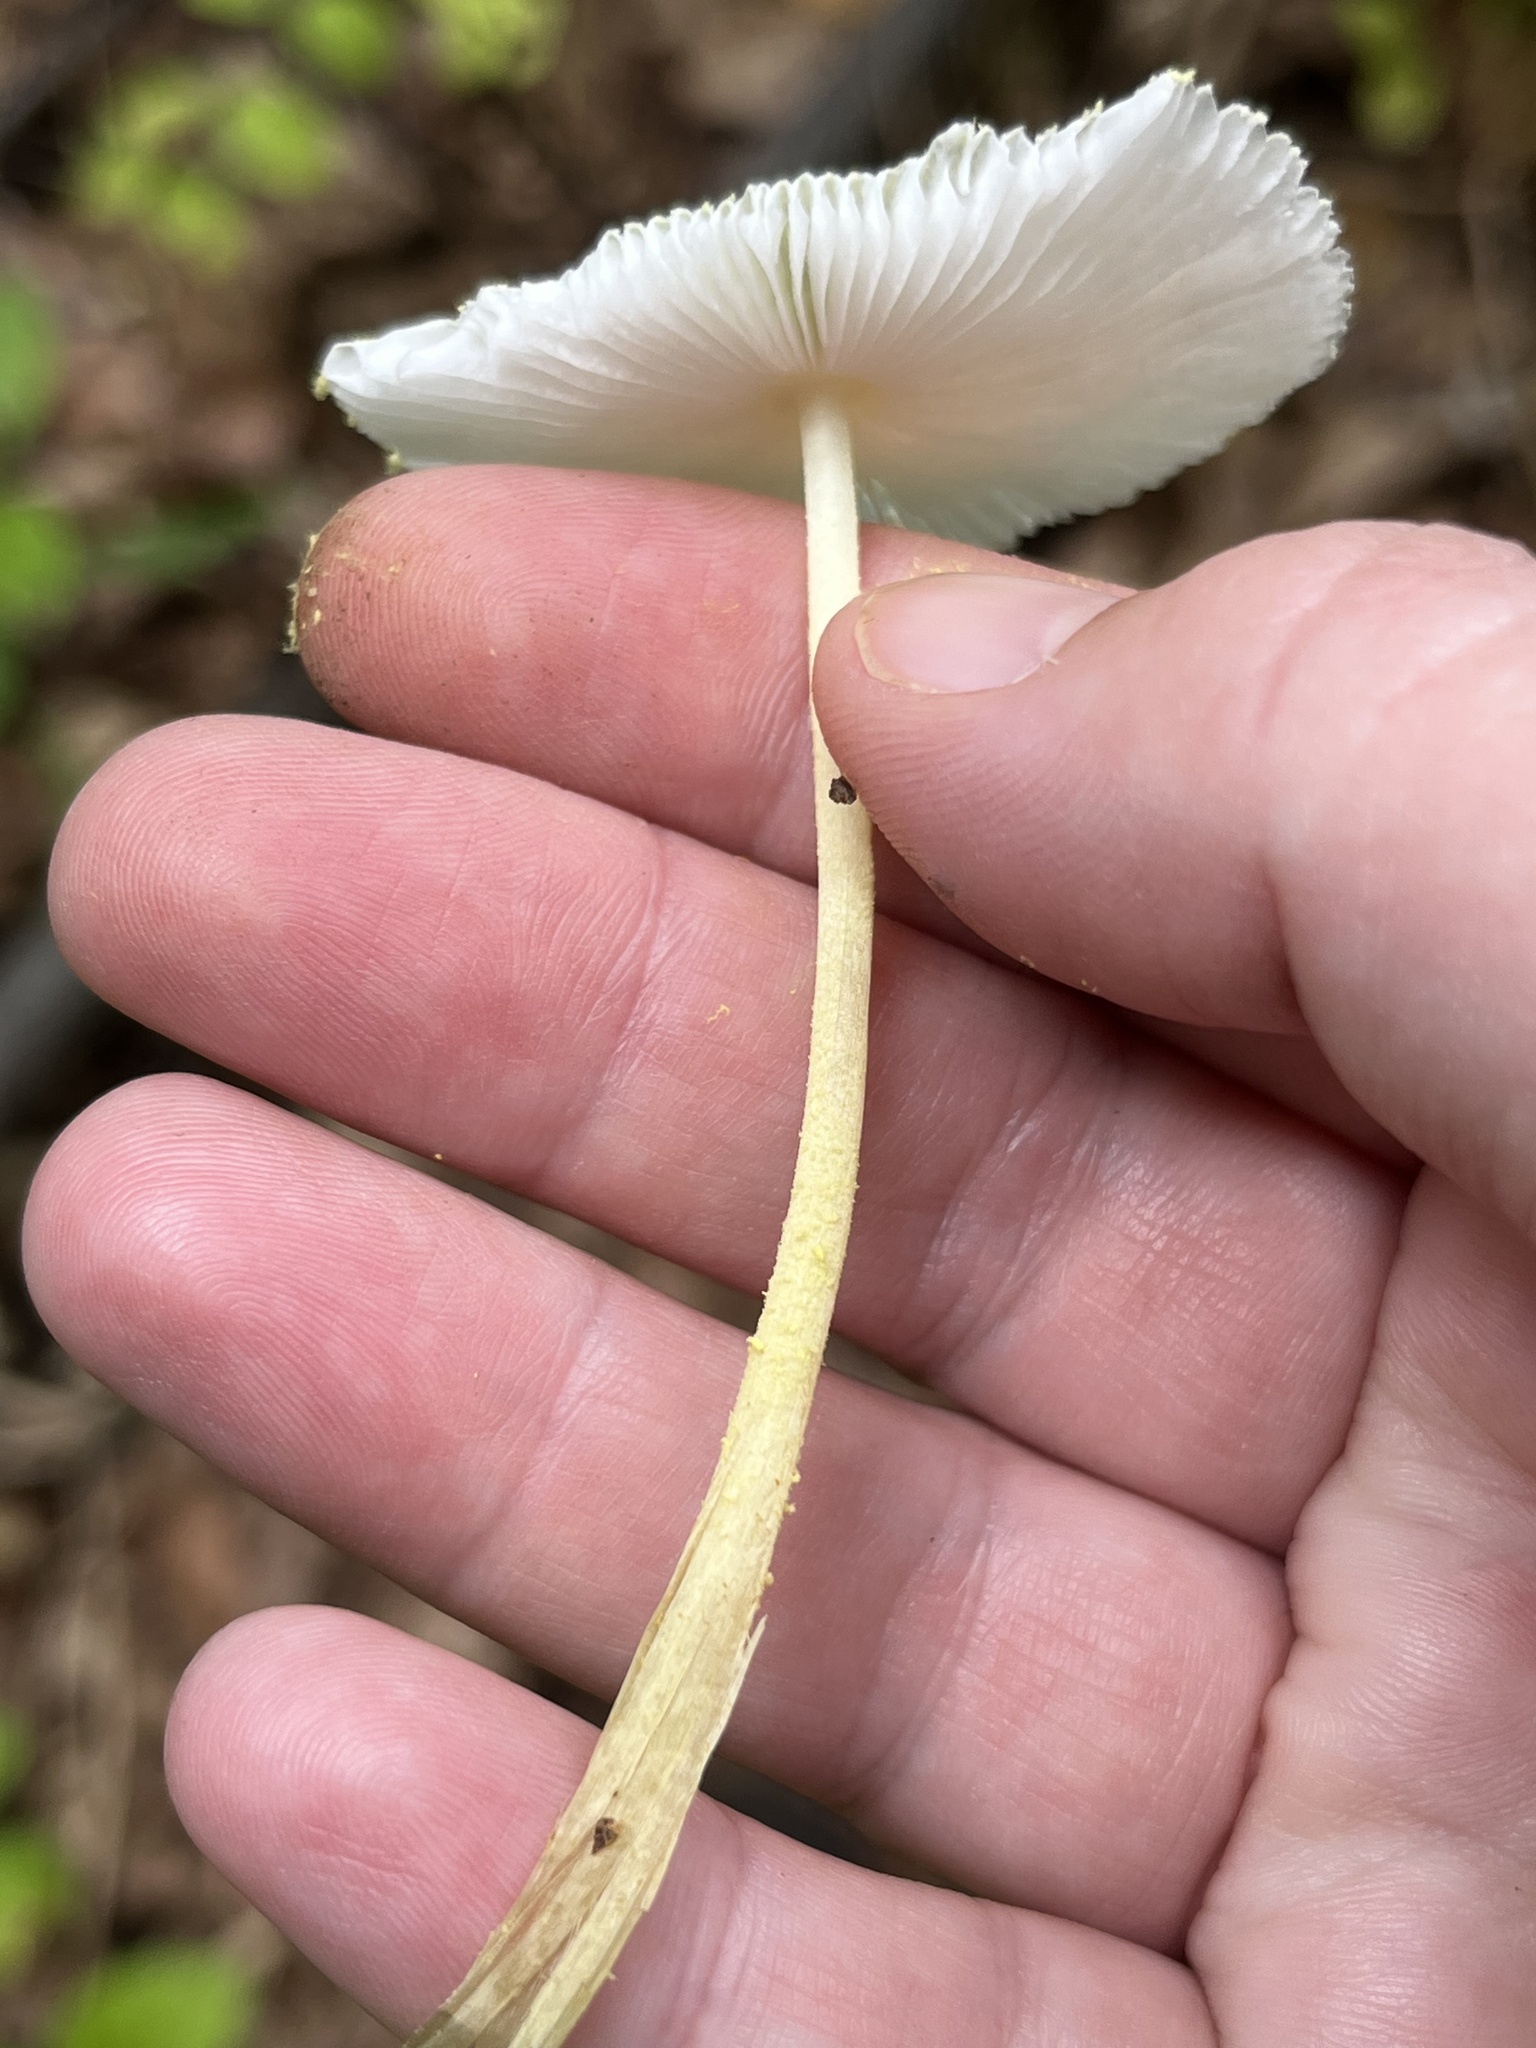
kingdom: Fungi
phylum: Basidiomycota
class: Agaricomycetes
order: Agaricales
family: Agaricaceae
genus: Leucocoprinus
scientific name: Leucocoprinus fragilissimus
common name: Fragile dapperling
